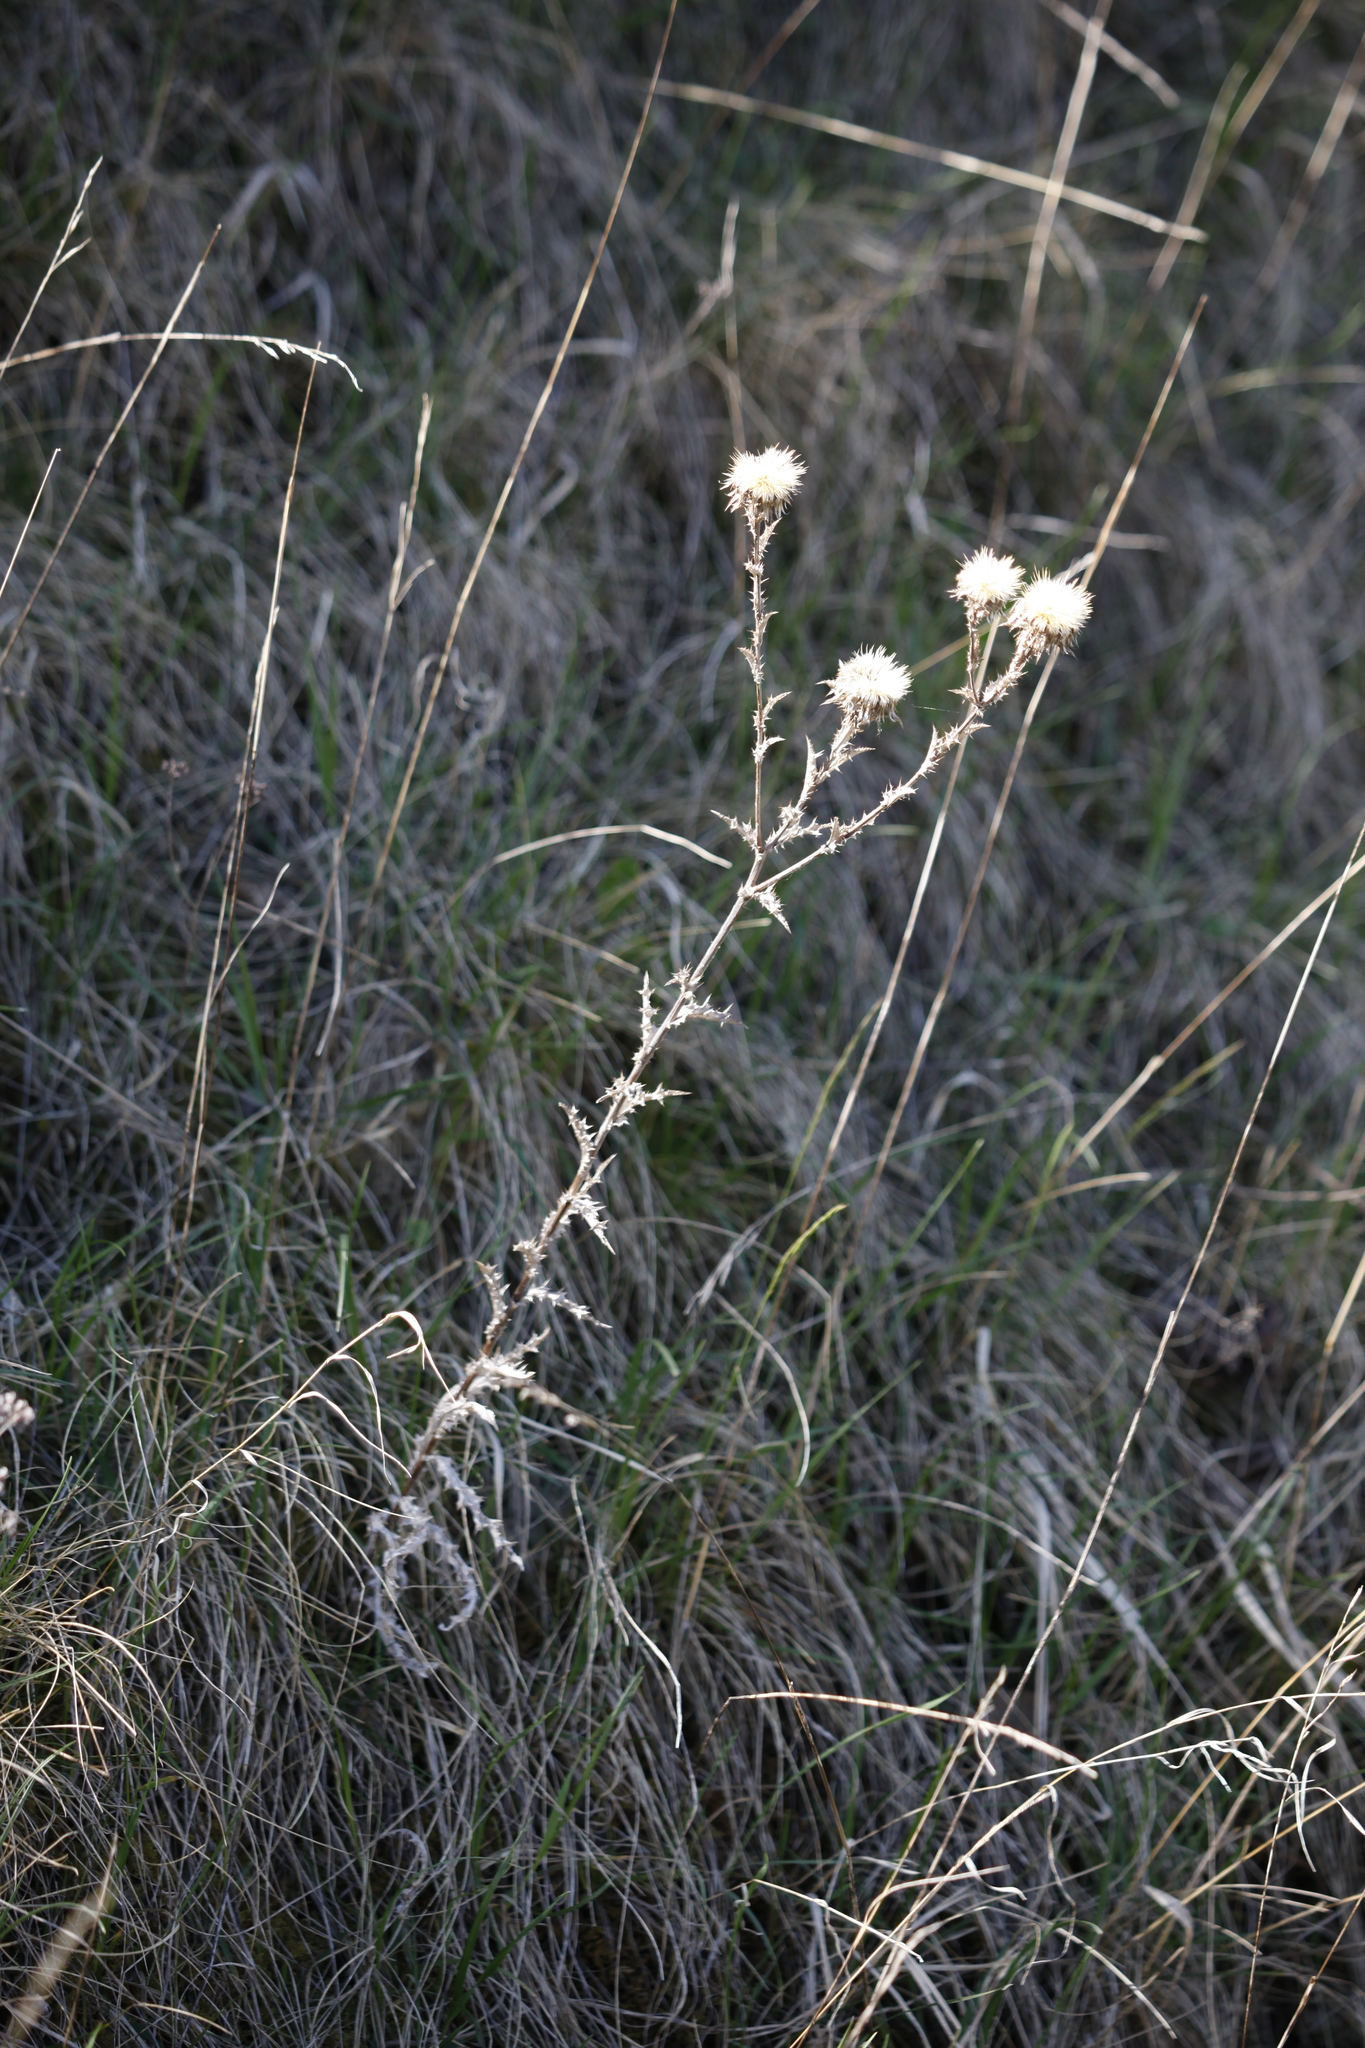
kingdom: Plantae
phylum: Tracheophyta
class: Magnoliopsida
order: Asterales
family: Asteraceae
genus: Carlina
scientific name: Carlina vulgaris
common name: Carline thistle
